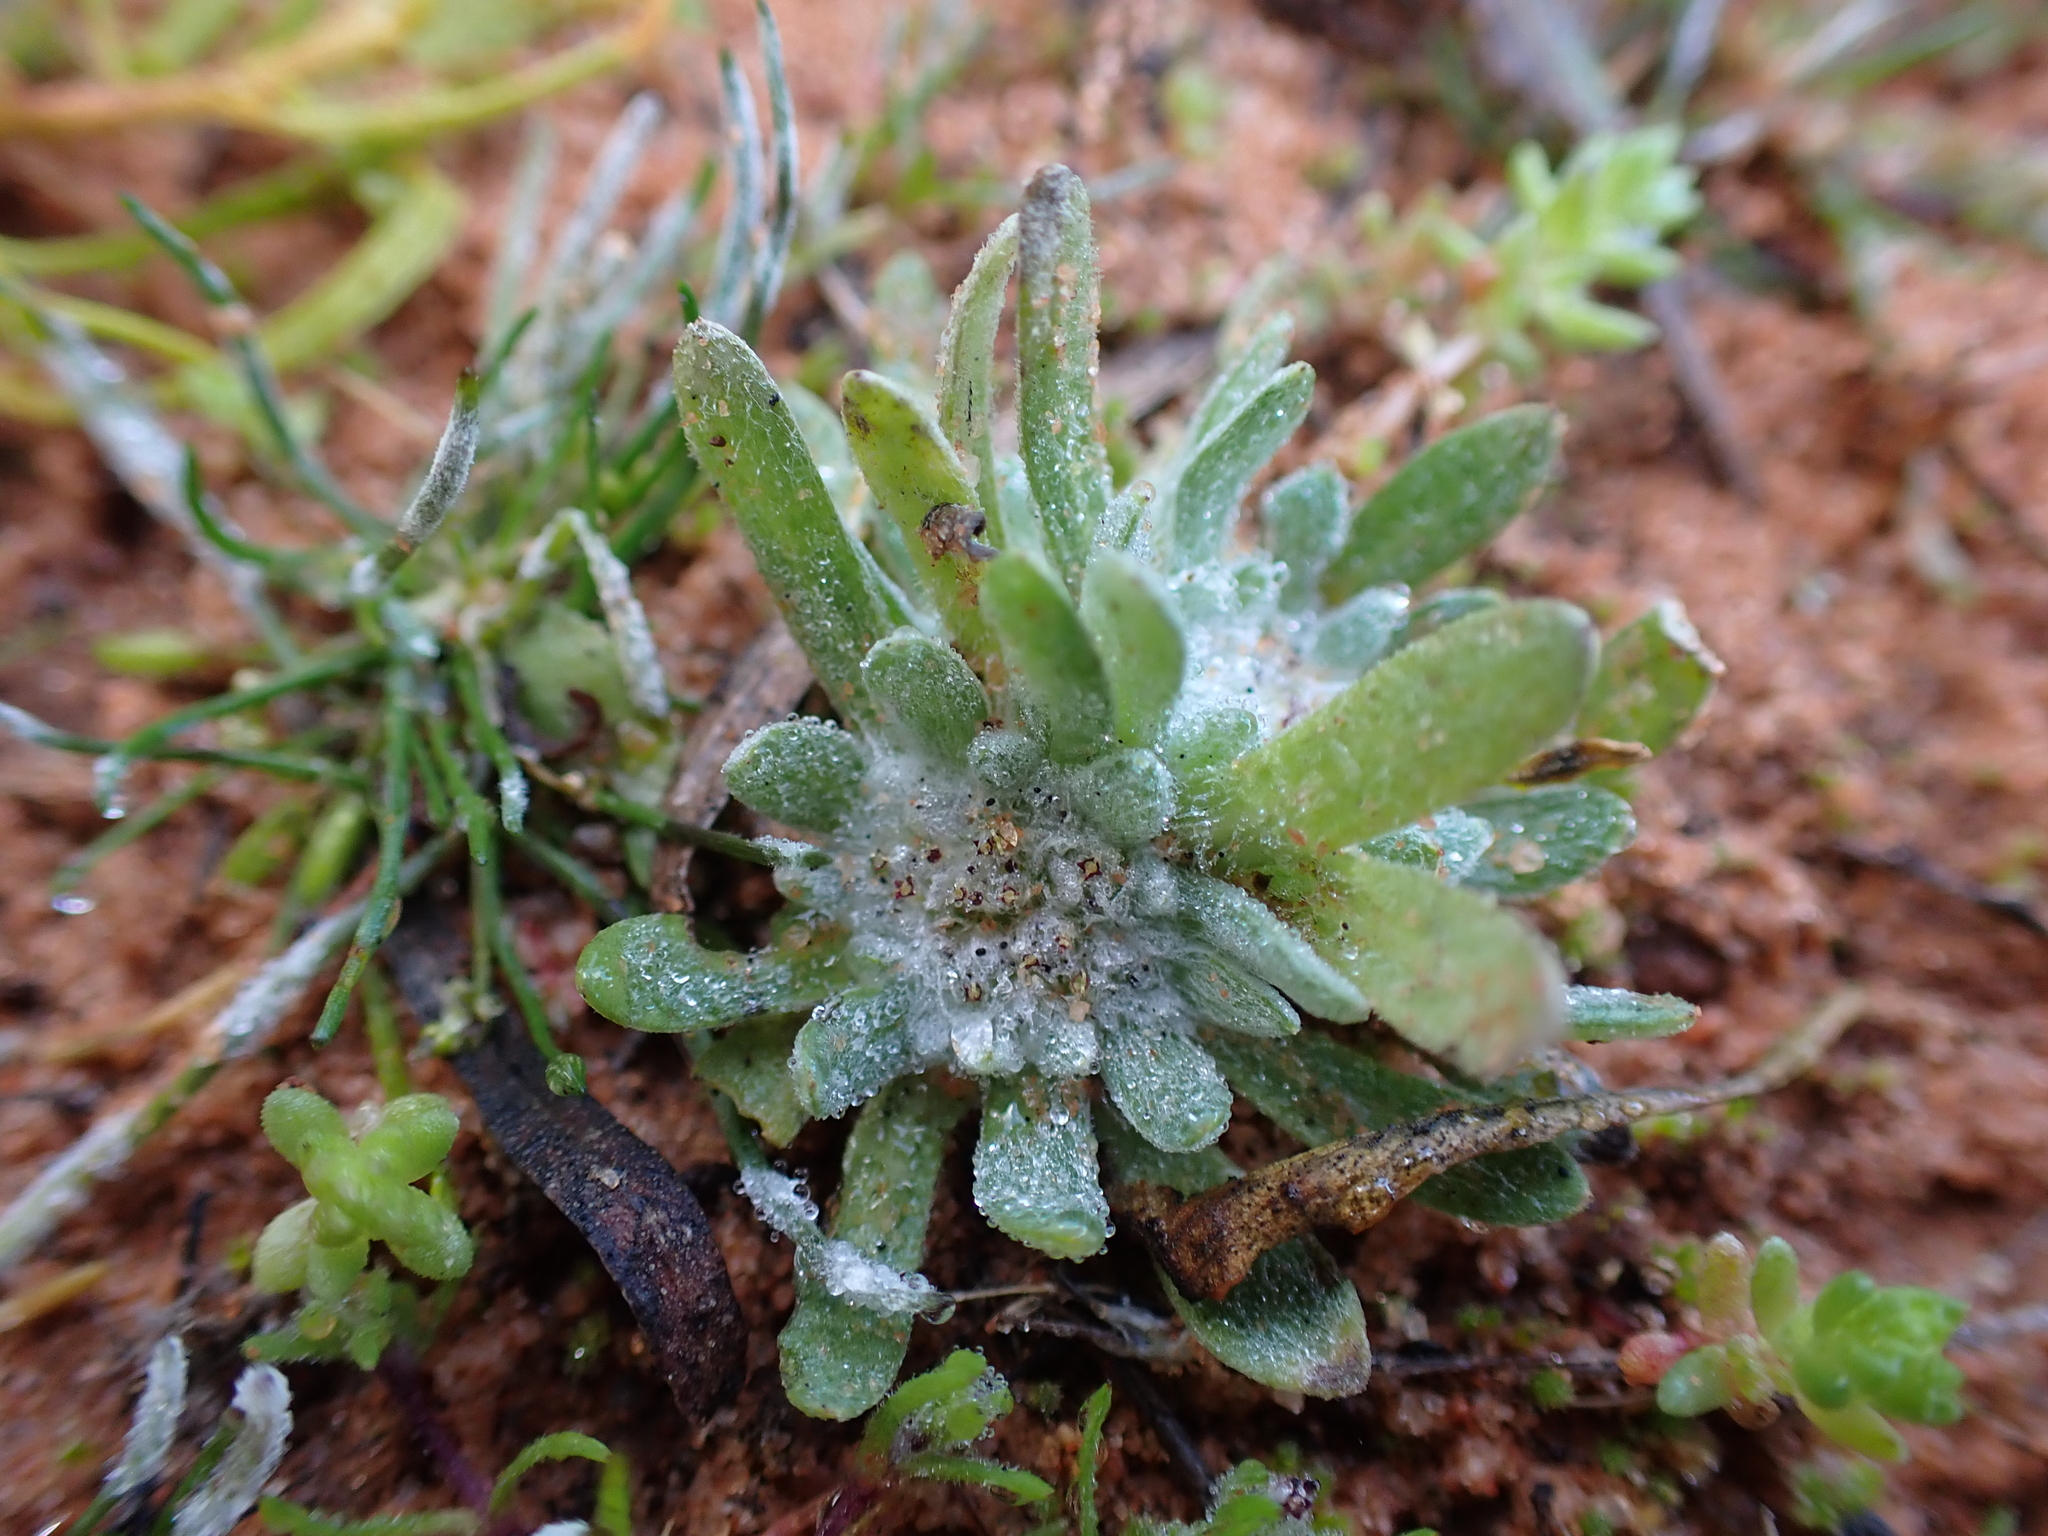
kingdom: Plantae
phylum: Tracheophyta
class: Magnoliopsida
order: Asterales
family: Asteraceae
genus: Chthonocephalus
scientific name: Chthonocephalus pseudevax
